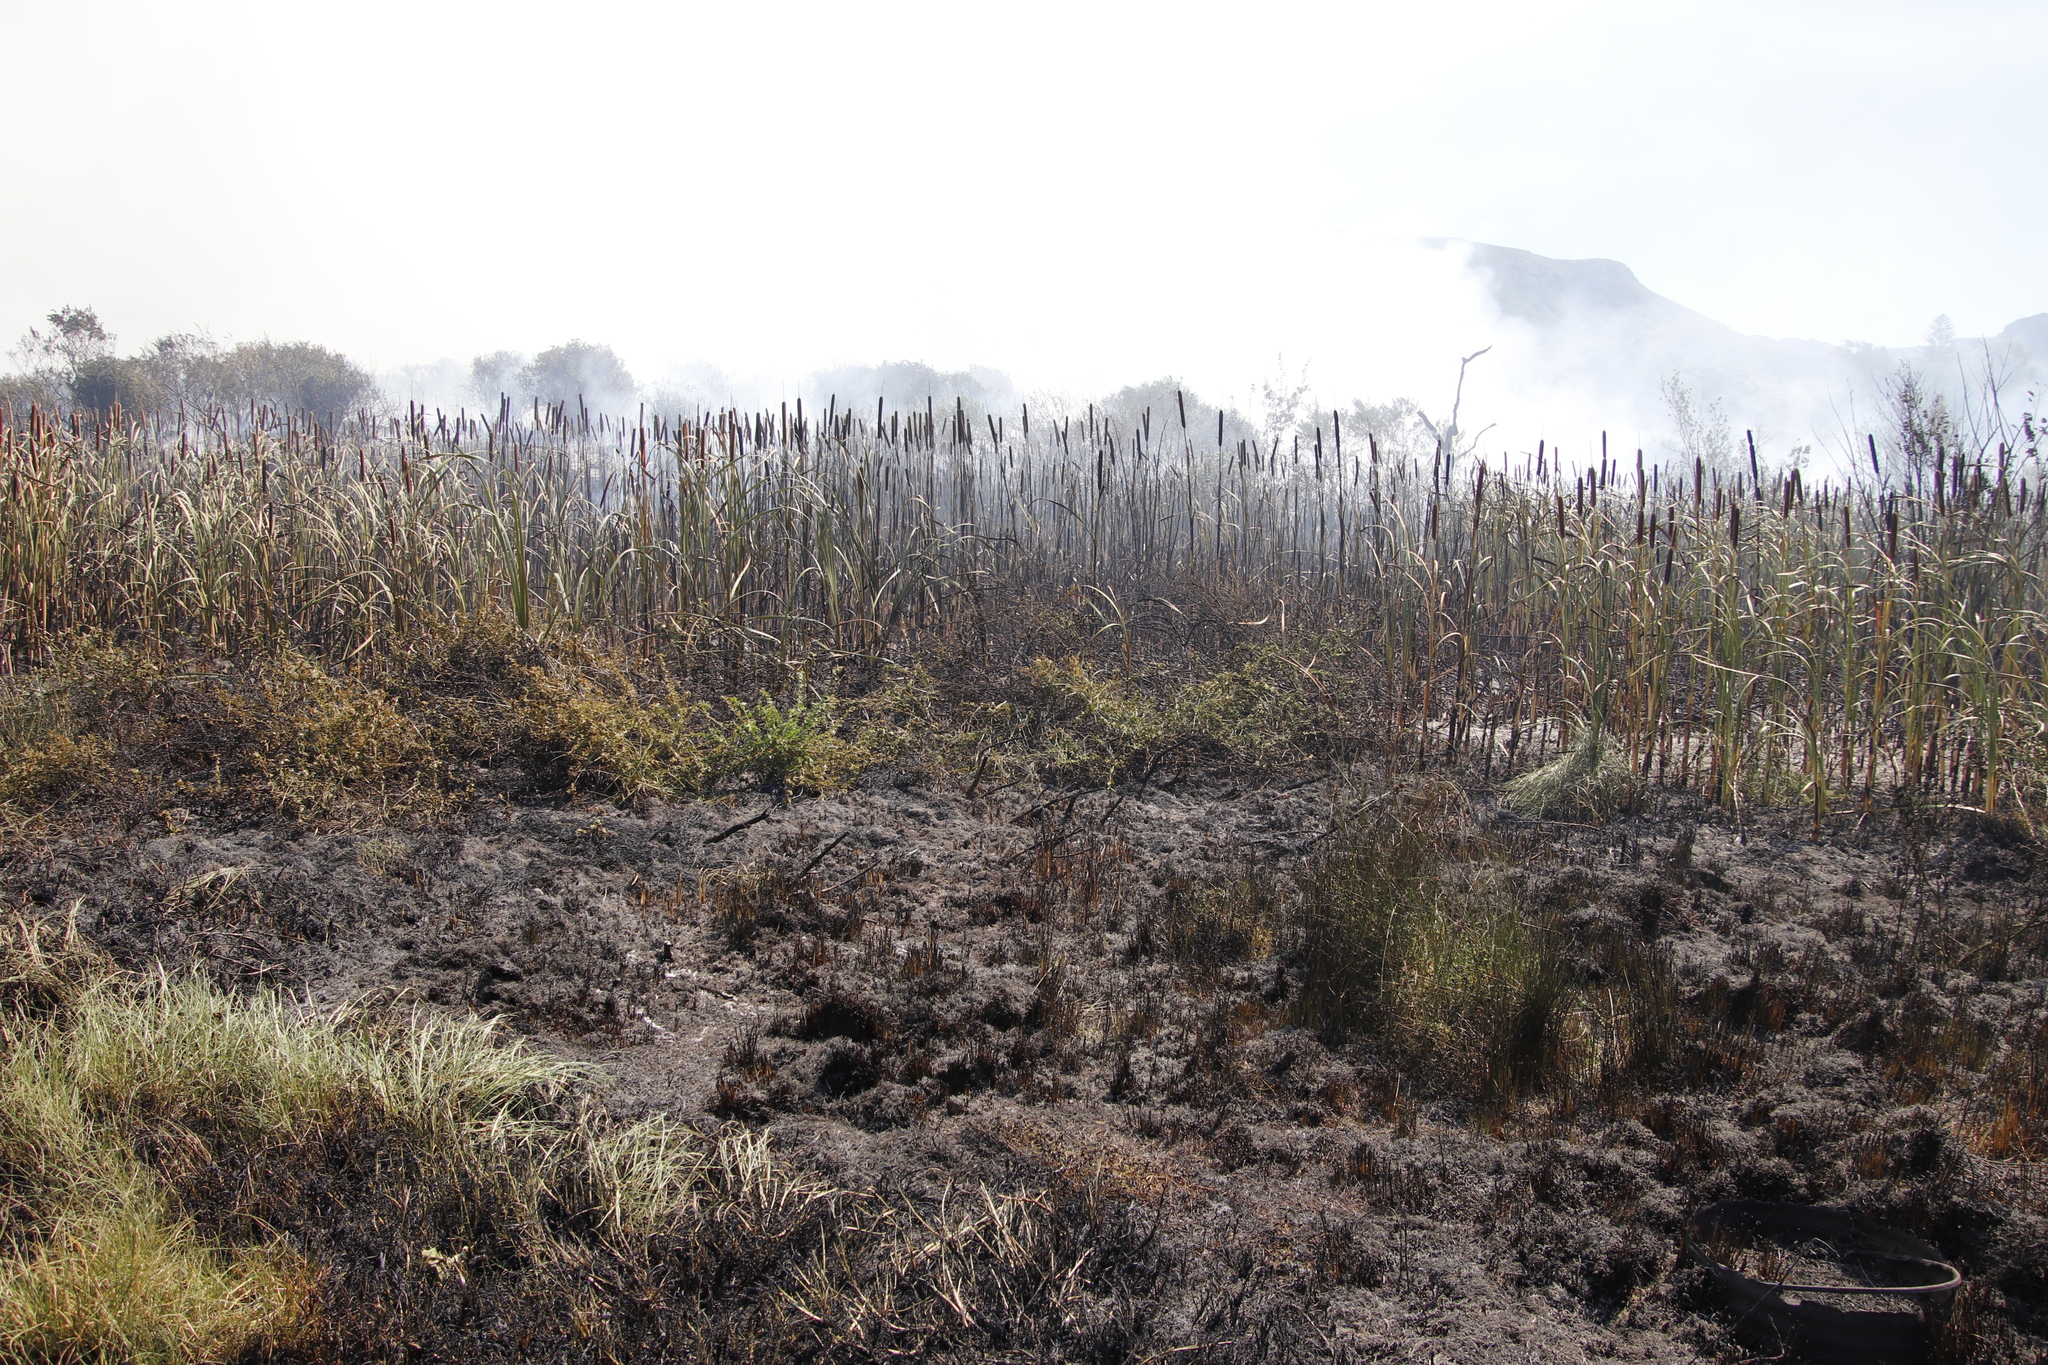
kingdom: Plantae
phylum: Tracheophyta
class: Liliopsida
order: Poales
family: Typhaceae
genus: Typha
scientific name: Typha capensis
